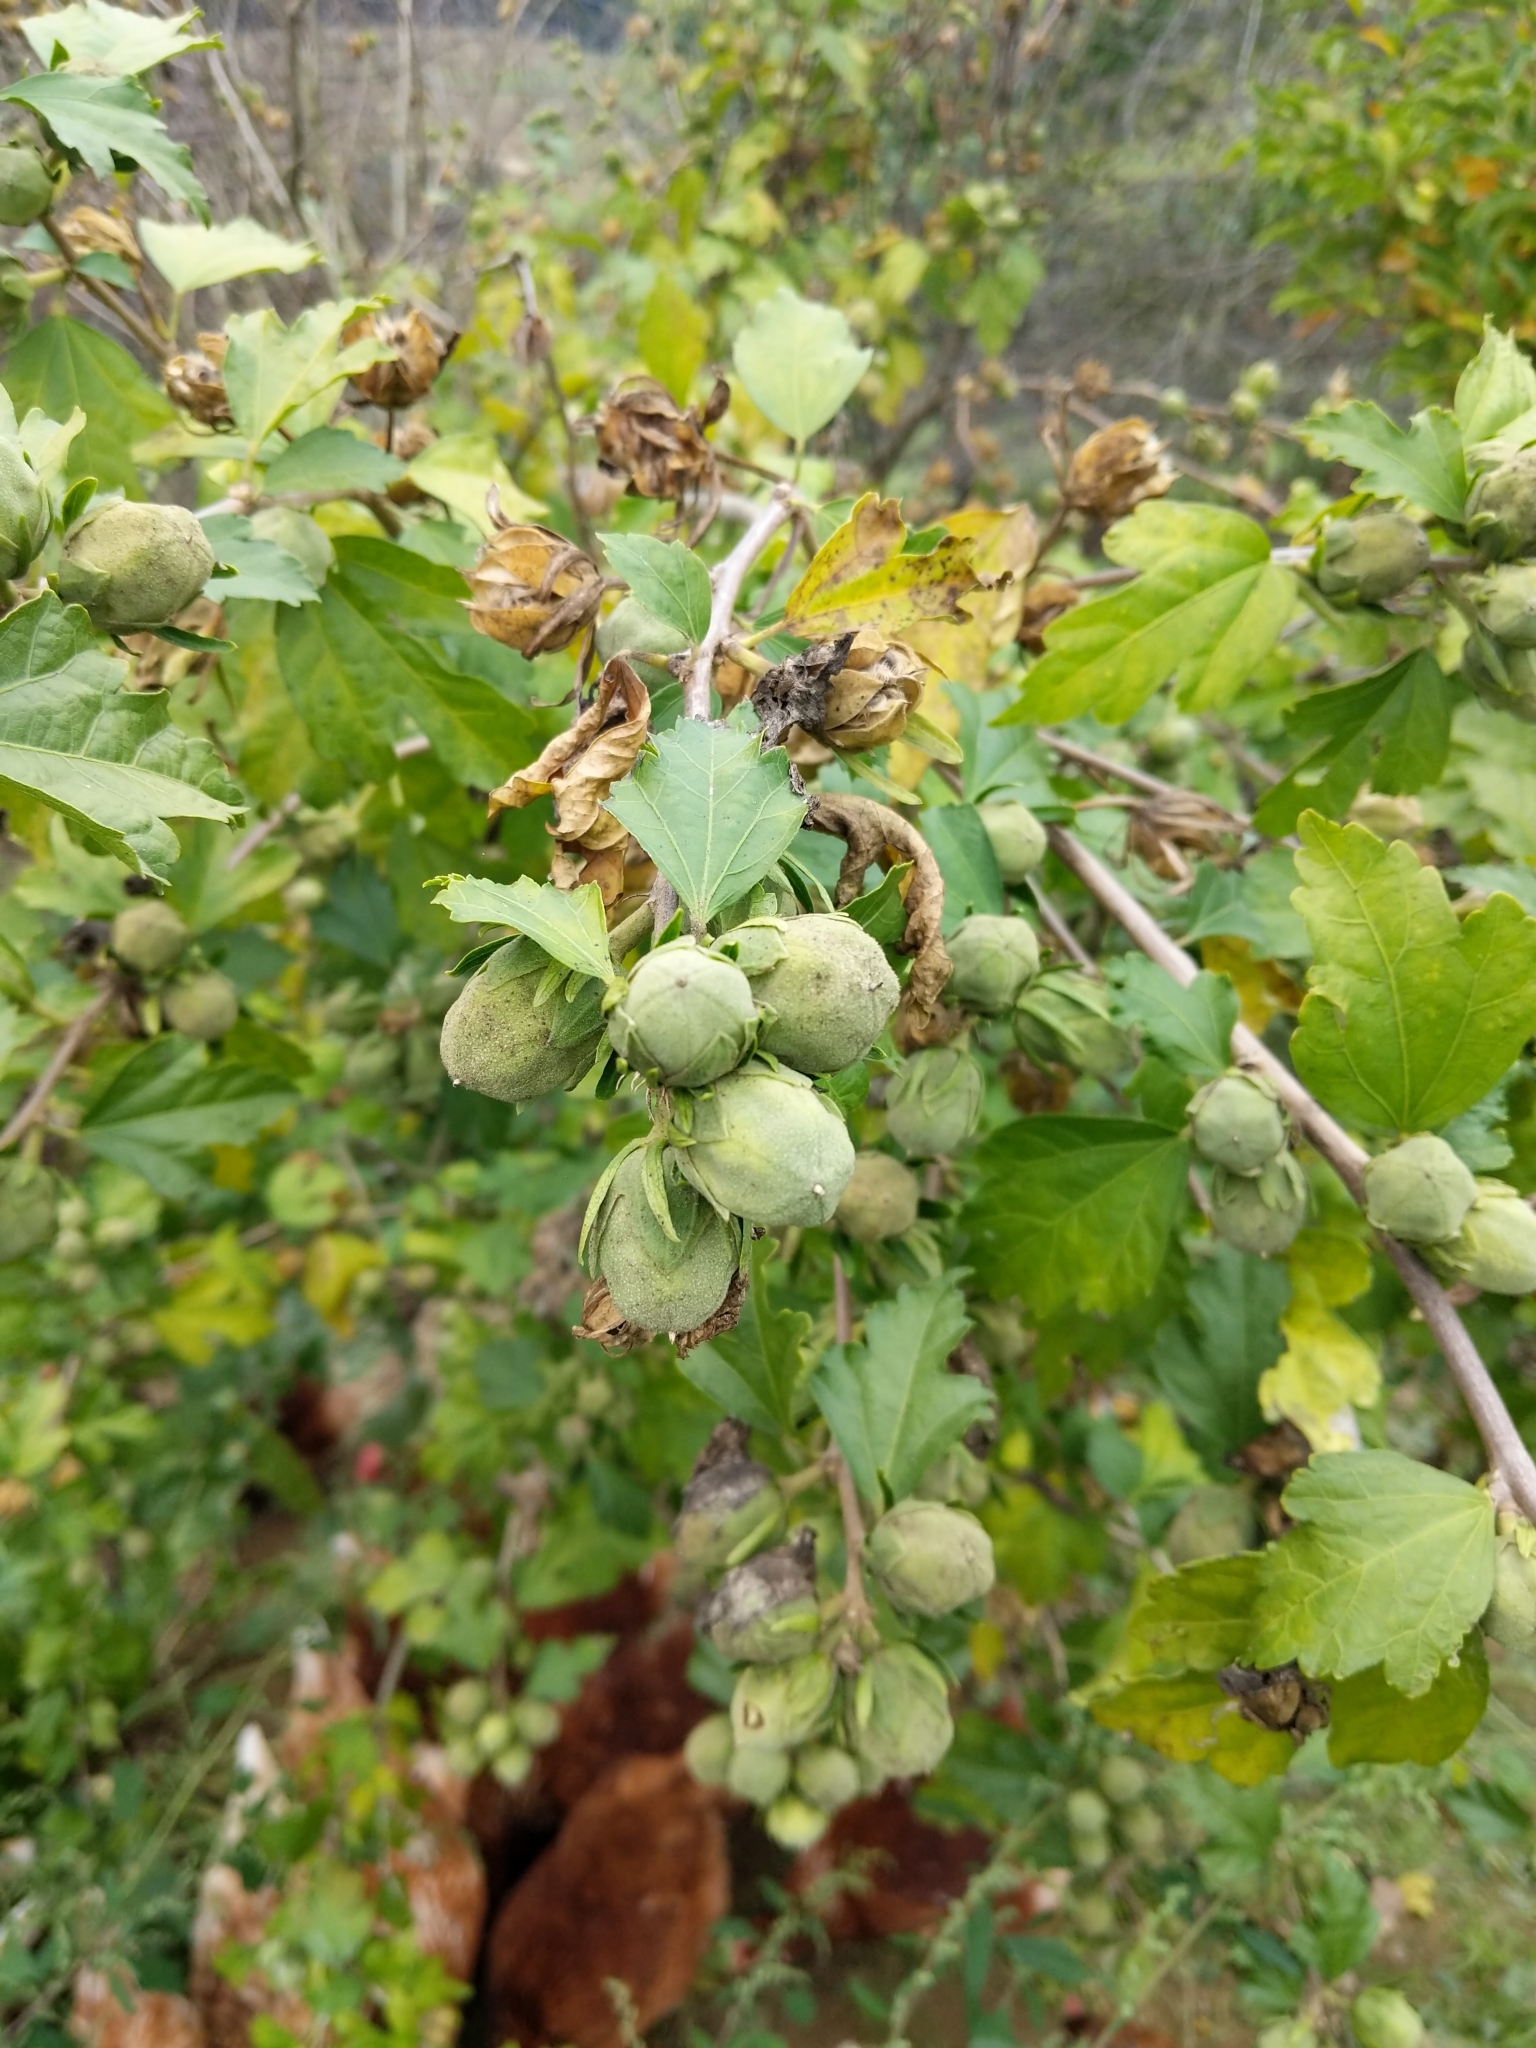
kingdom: Plantae
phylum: Tracheophyta
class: Magnoliopsida
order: Malvales
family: Malvaceae
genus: Hibiscus
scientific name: Hibiscus syriacus
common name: Syrian ketmia
